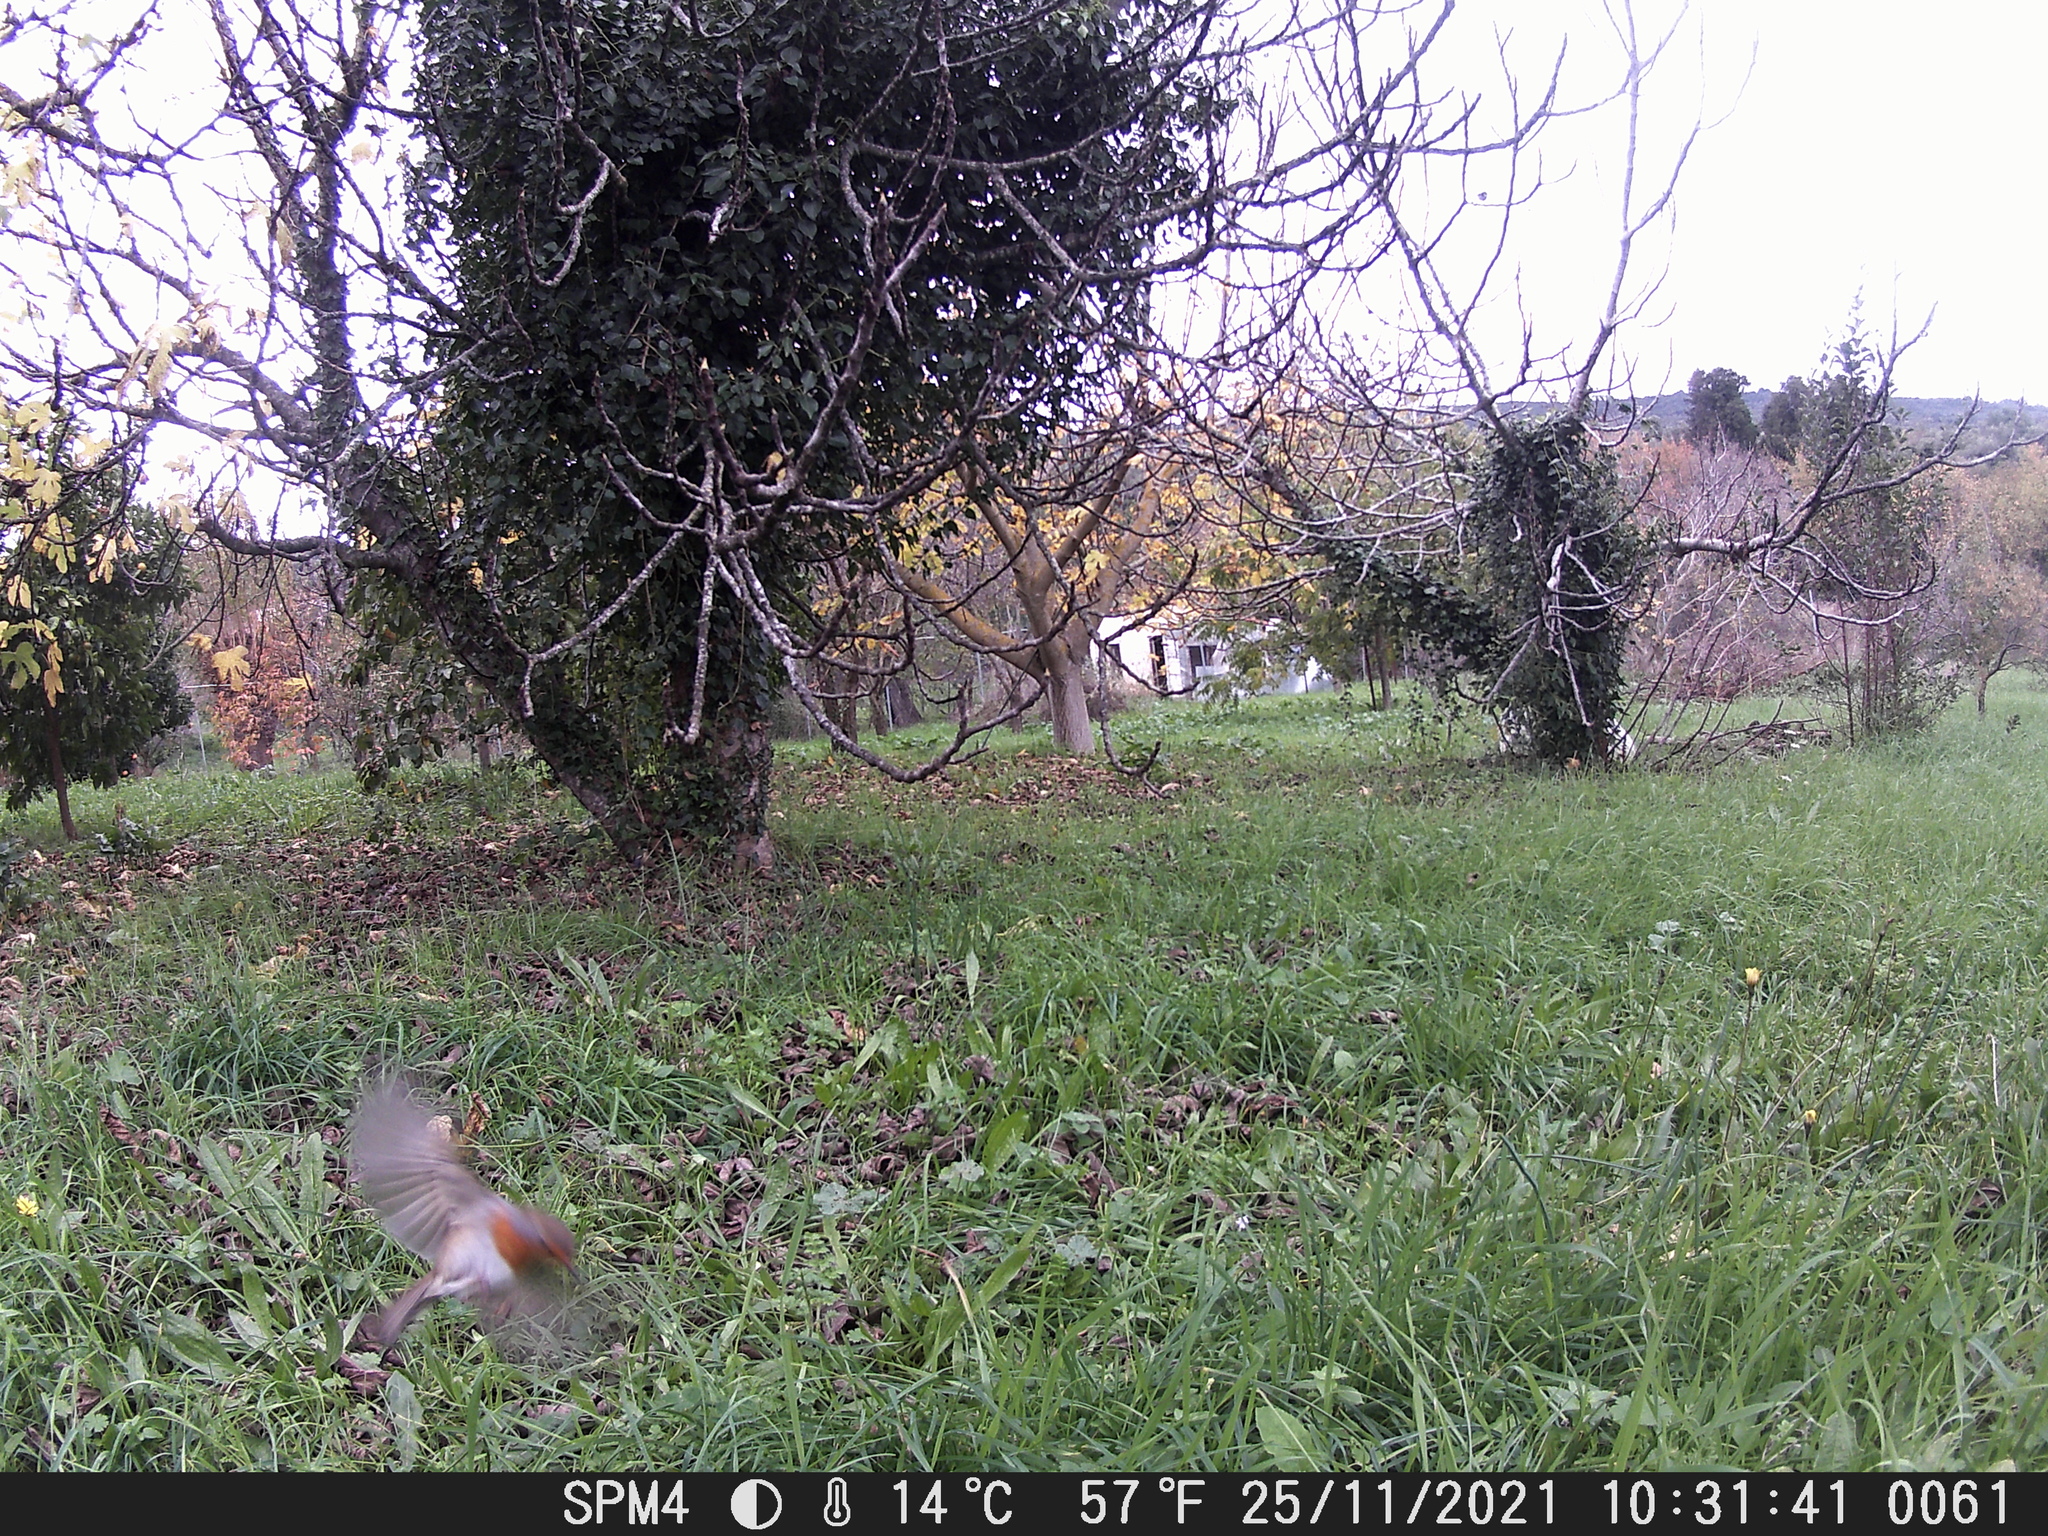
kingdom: Animalia
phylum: Chordata
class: Aves
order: Passeriformes
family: Muscicapidae
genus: Erithacus
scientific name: Erithacus rubecula
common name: European robin
